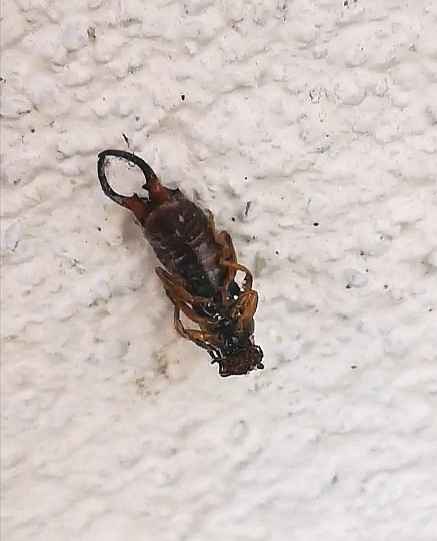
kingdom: Animalia
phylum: Arthropoda
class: Insecta
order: Dermaptera
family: Forficulidae
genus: Forficula
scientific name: Forficula
